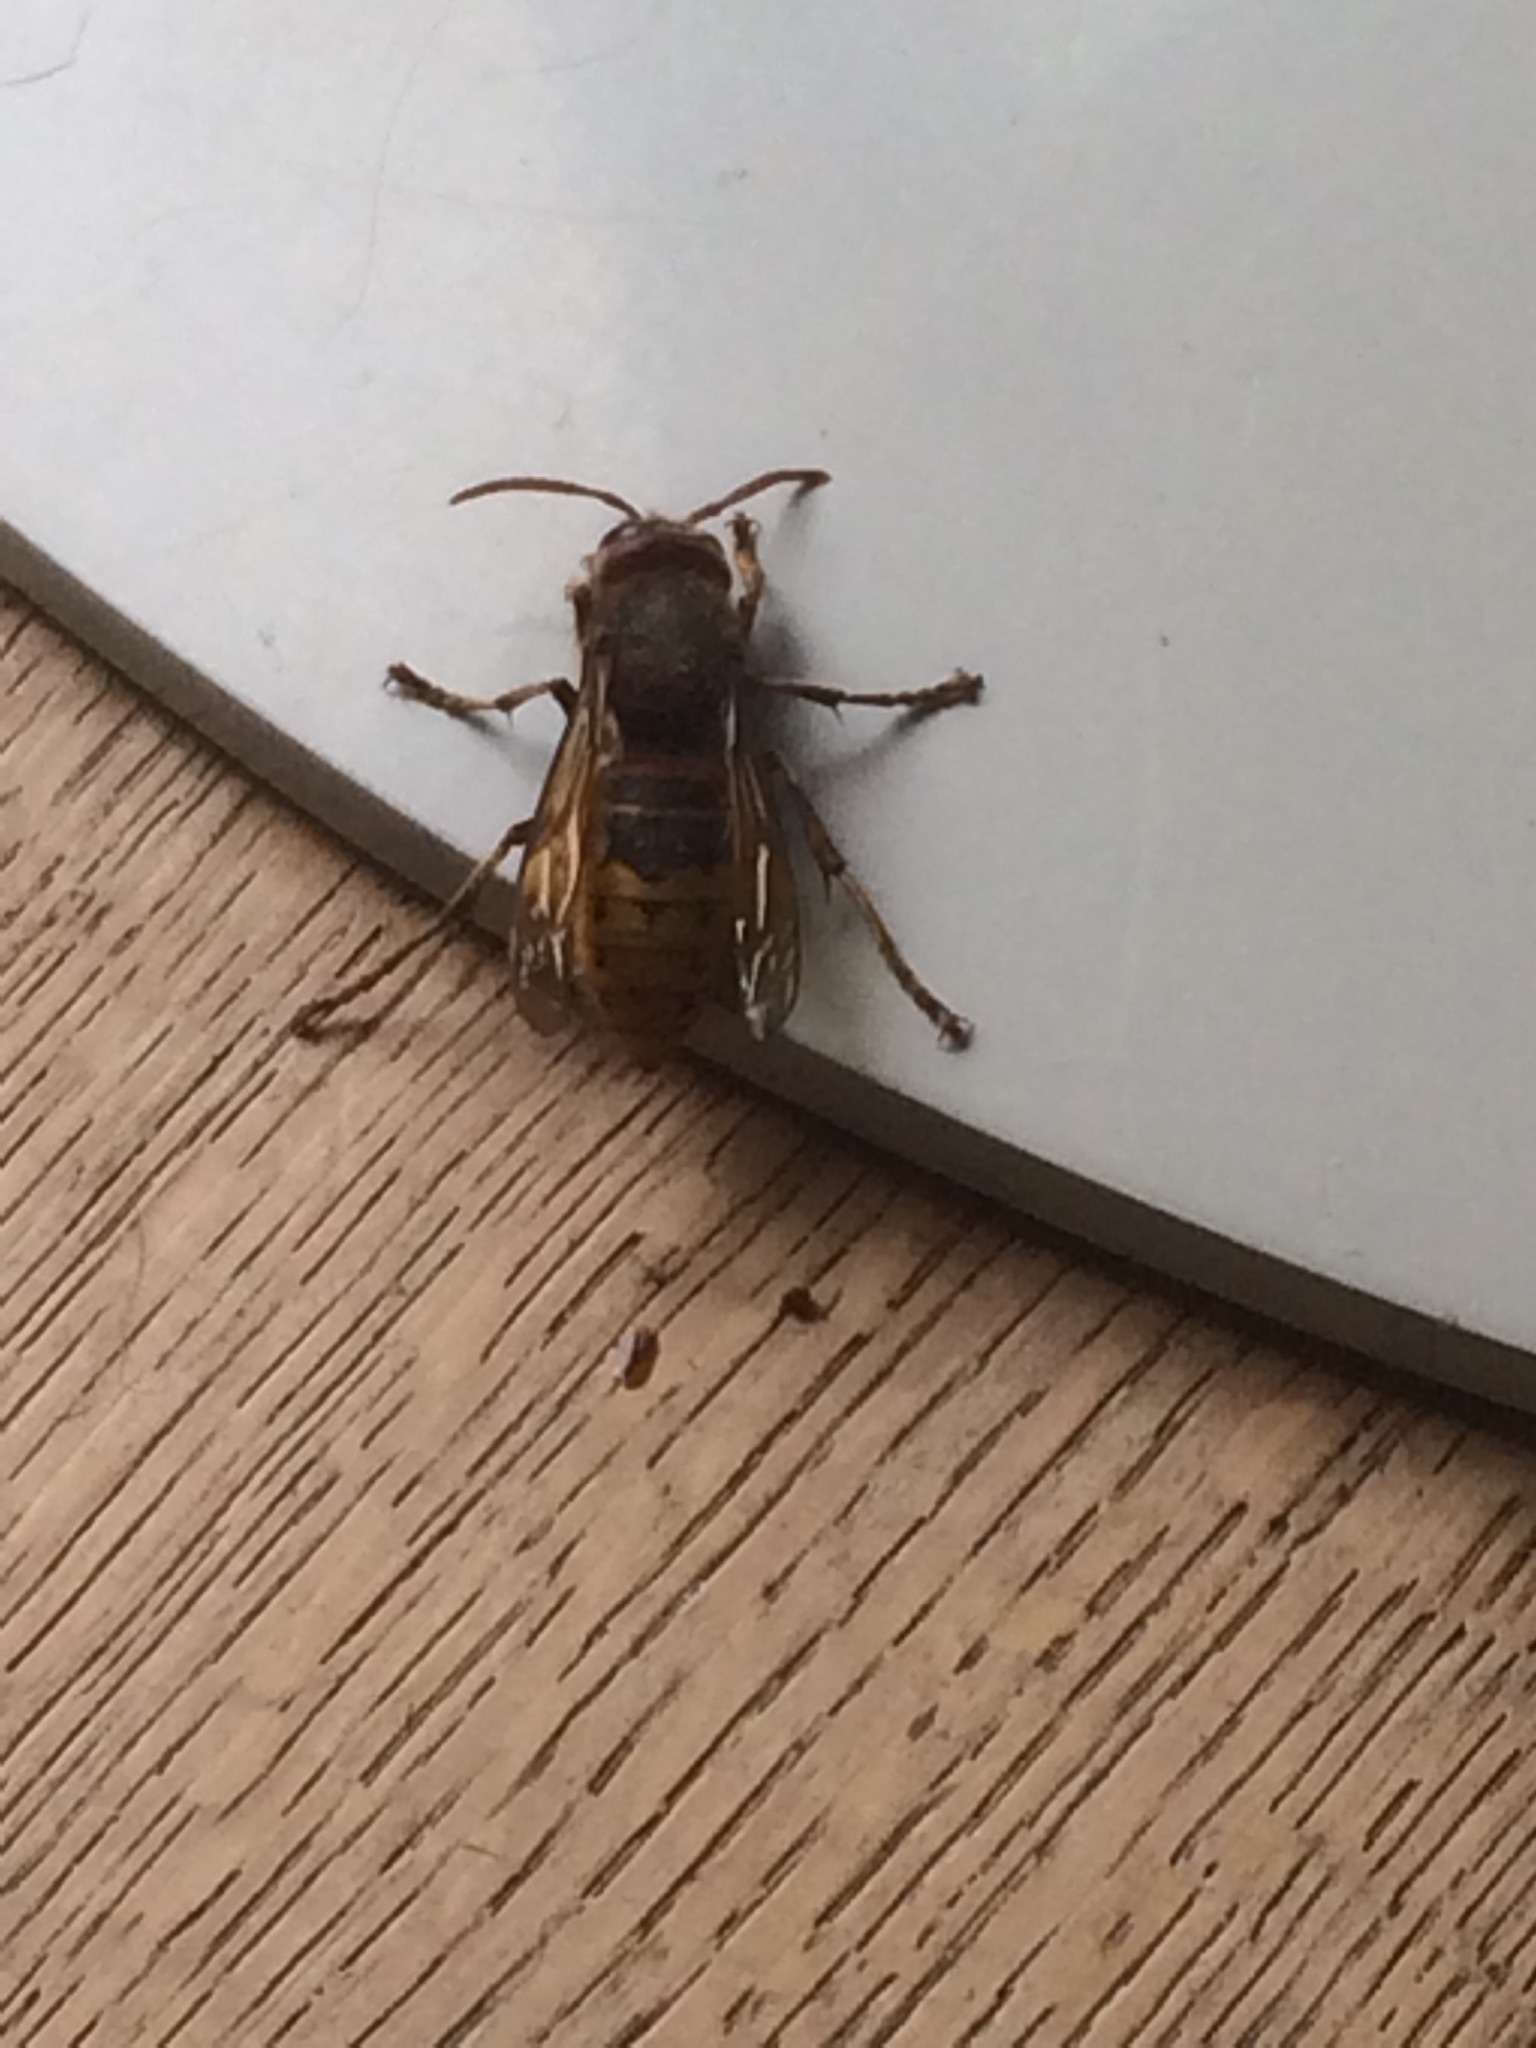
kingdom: Animalia
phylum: Arthropoda
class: Insecta
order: Hymenoptera
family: Vespidae
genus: Vespa
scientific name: Vespa crabro
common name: Hornet
